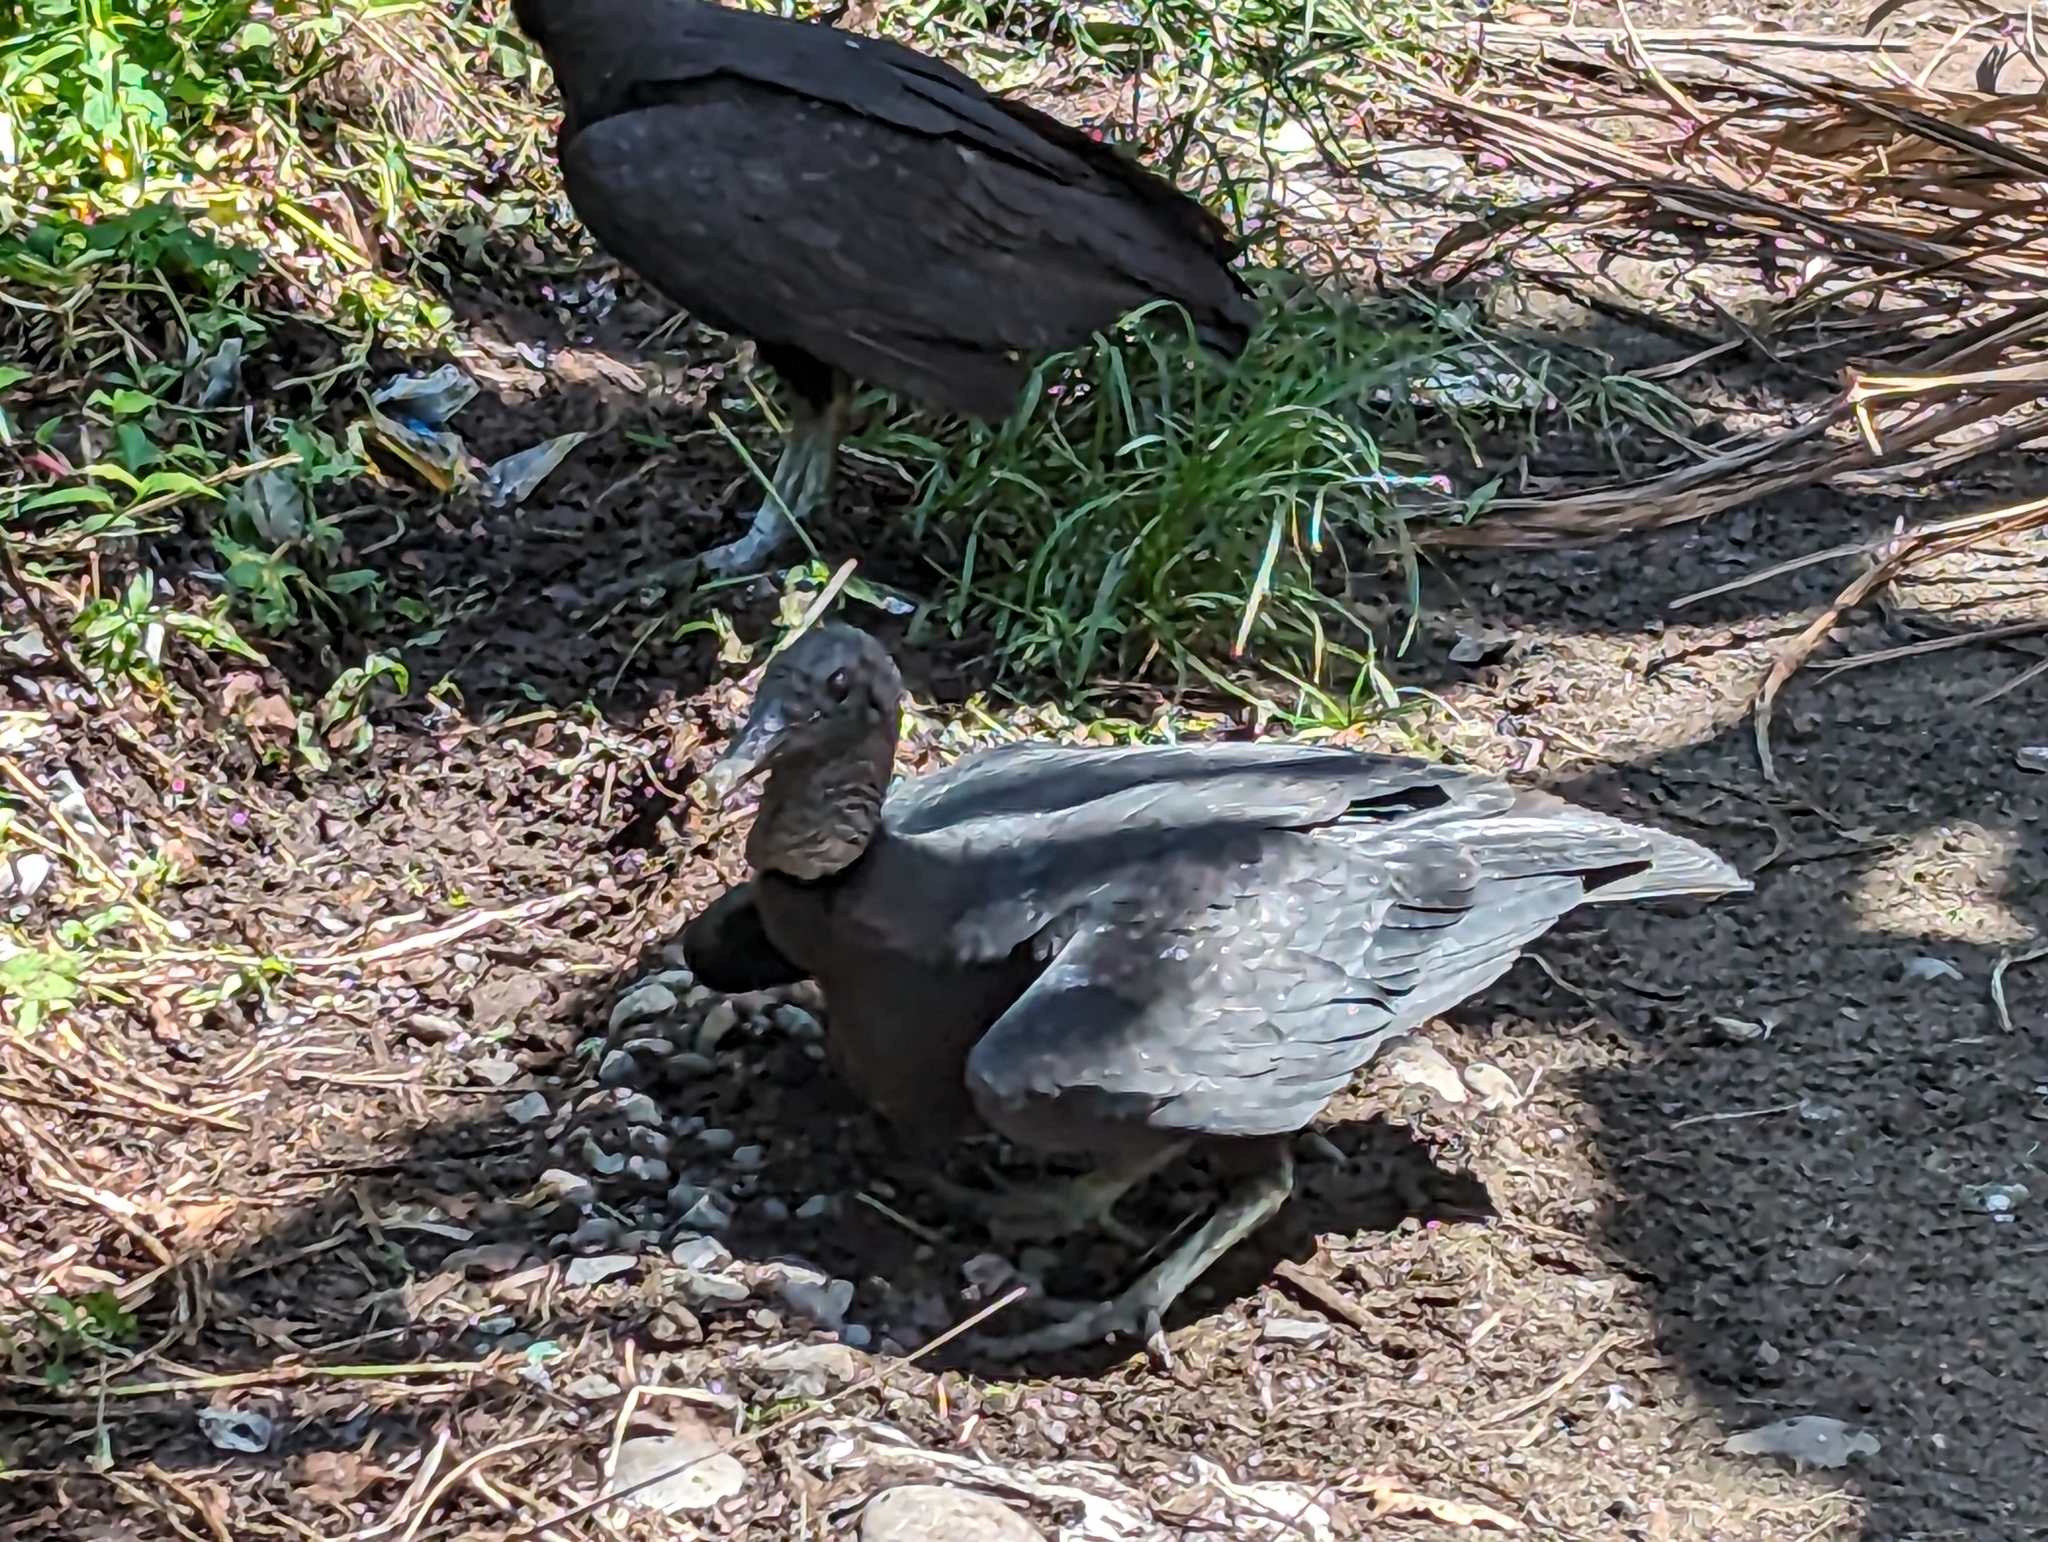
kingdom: Animalia
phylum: Chordata
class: Aves
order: Accipitriformes
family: Cathartidae
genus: Coragyps
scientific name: Coragyps atratus
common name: Black vulture
